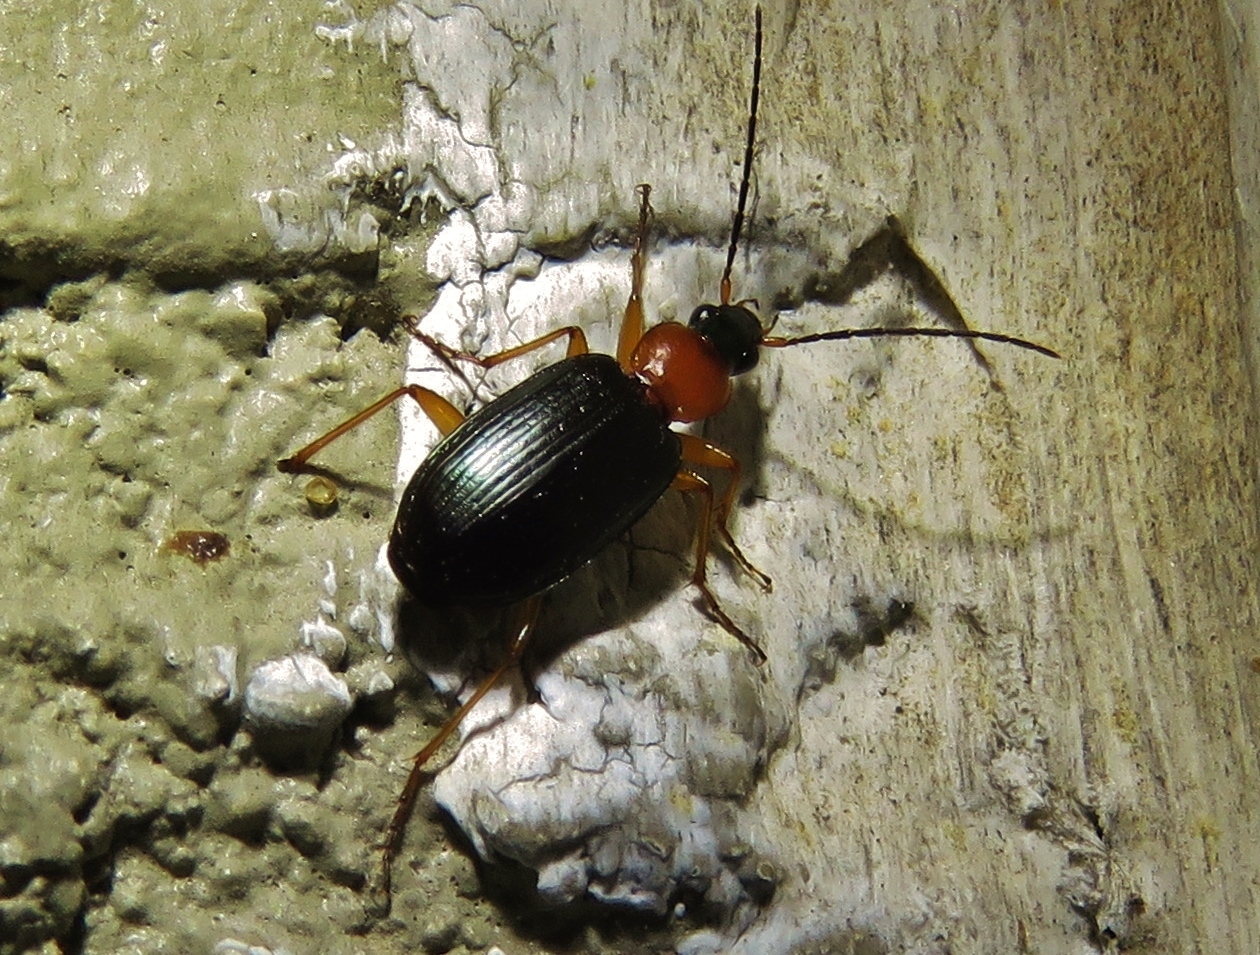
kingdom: Animalia
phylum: Arthropoda
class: Insecta
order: Coleoptera
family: Carabidae
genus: Agonum
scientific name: Agonum decorum
